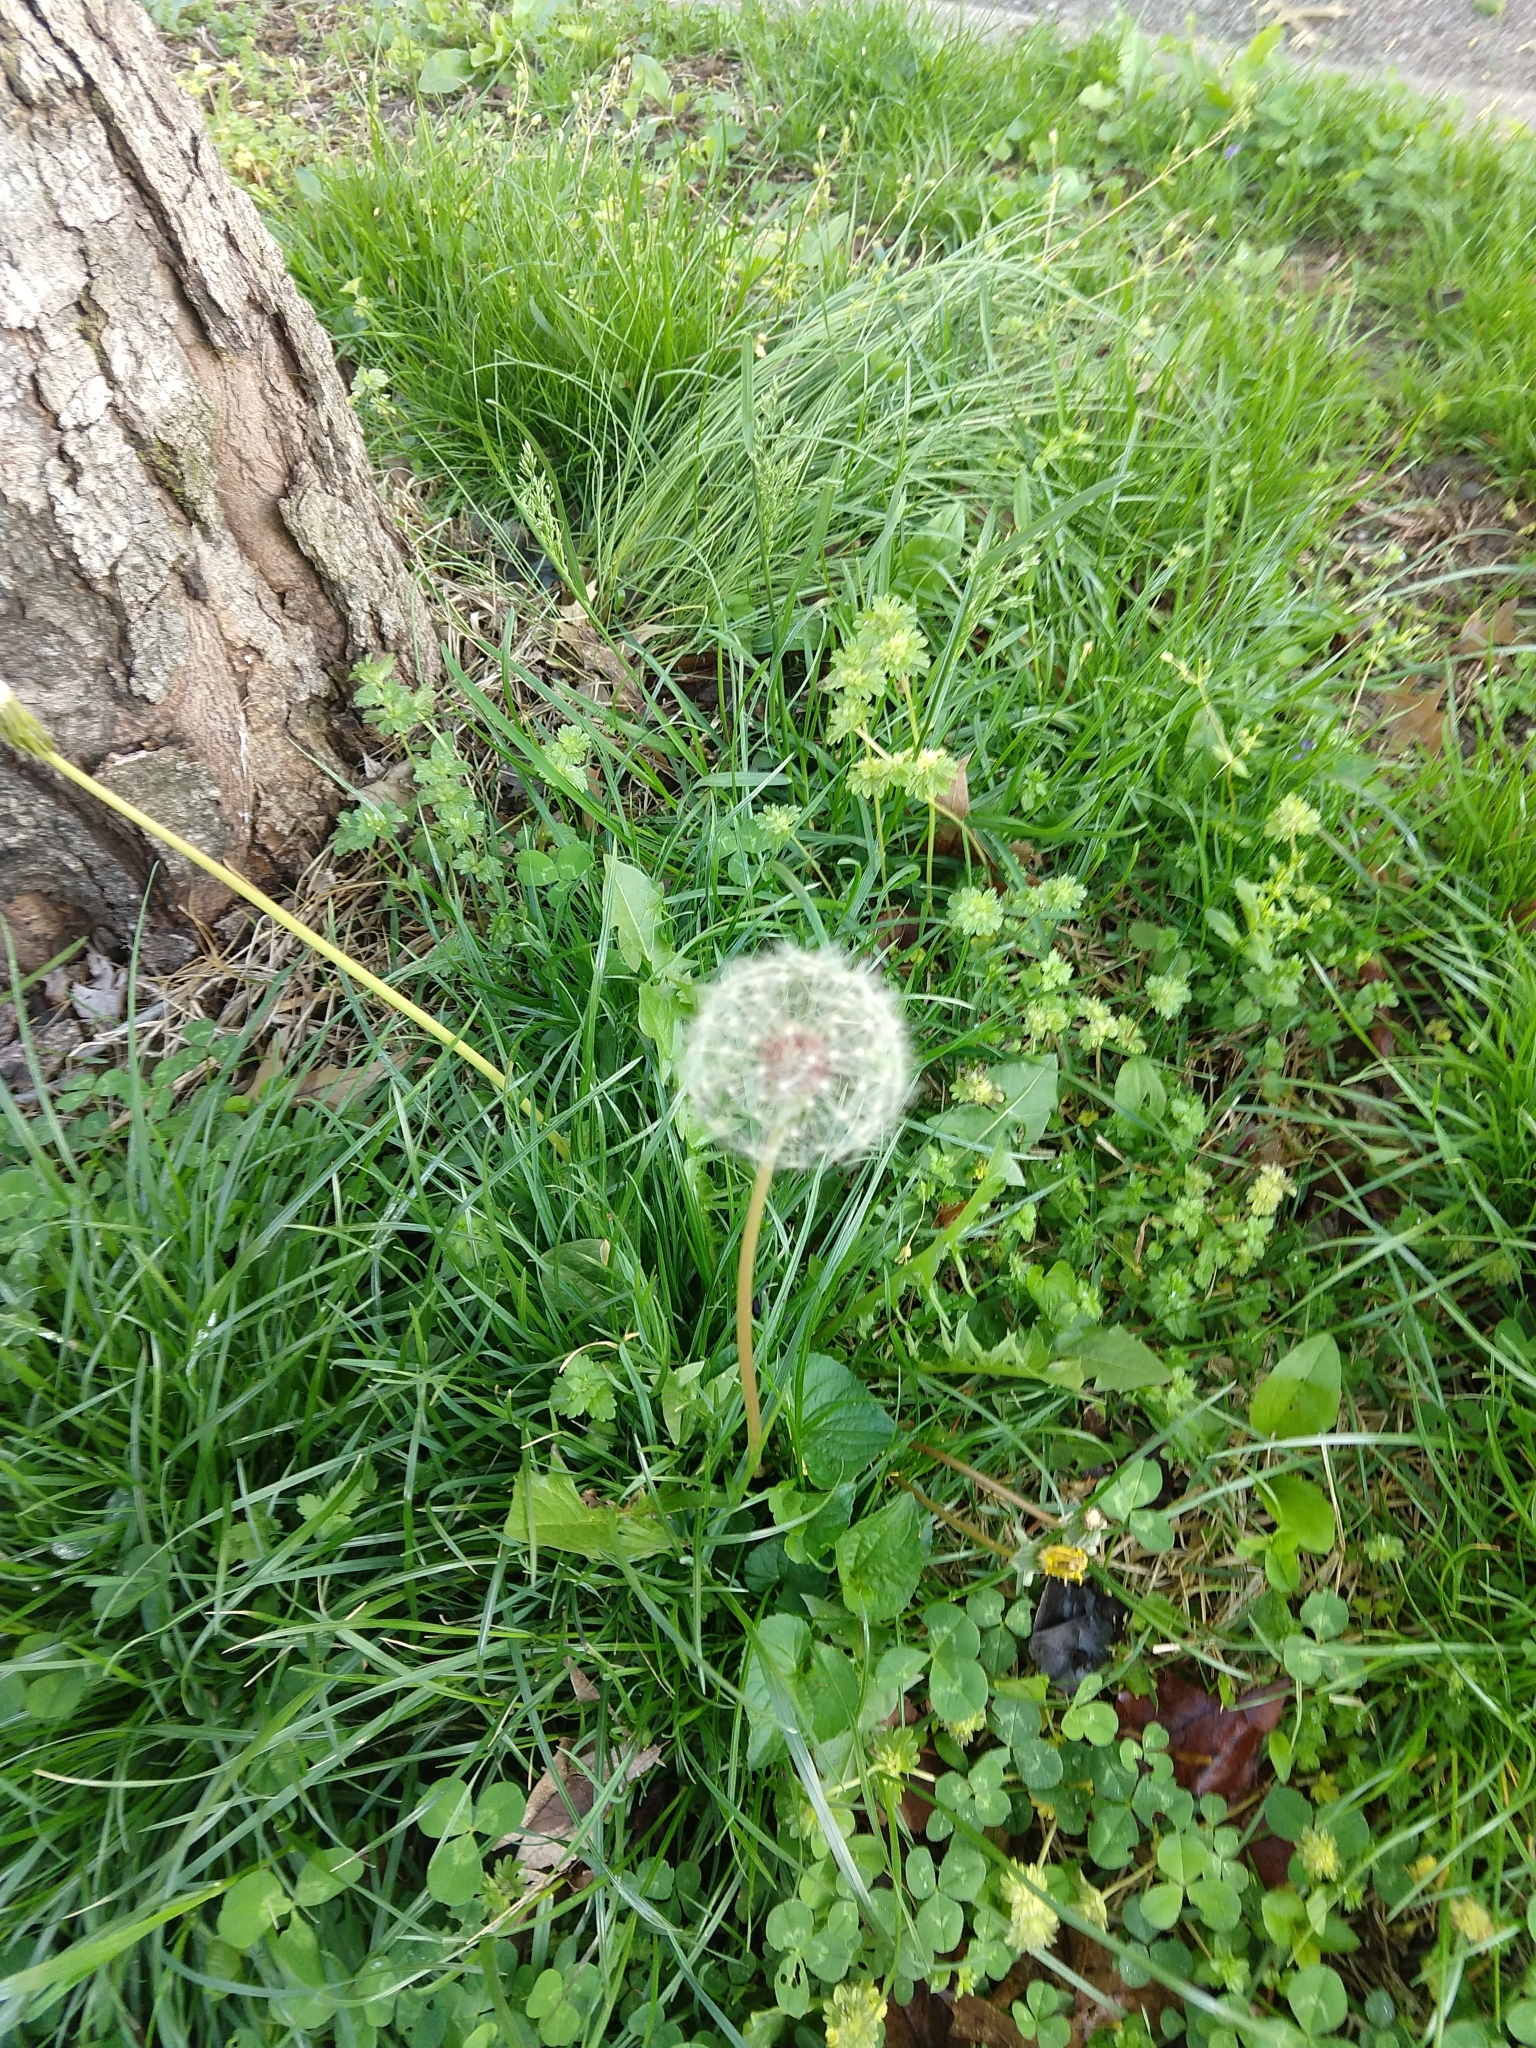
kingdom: Plantae
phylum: Tracheophyta
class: Magnoliopsida
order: Asterales
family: Asteraceae
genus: Taraxacum
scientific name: Taraxacum officinale
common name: Common dandelion
